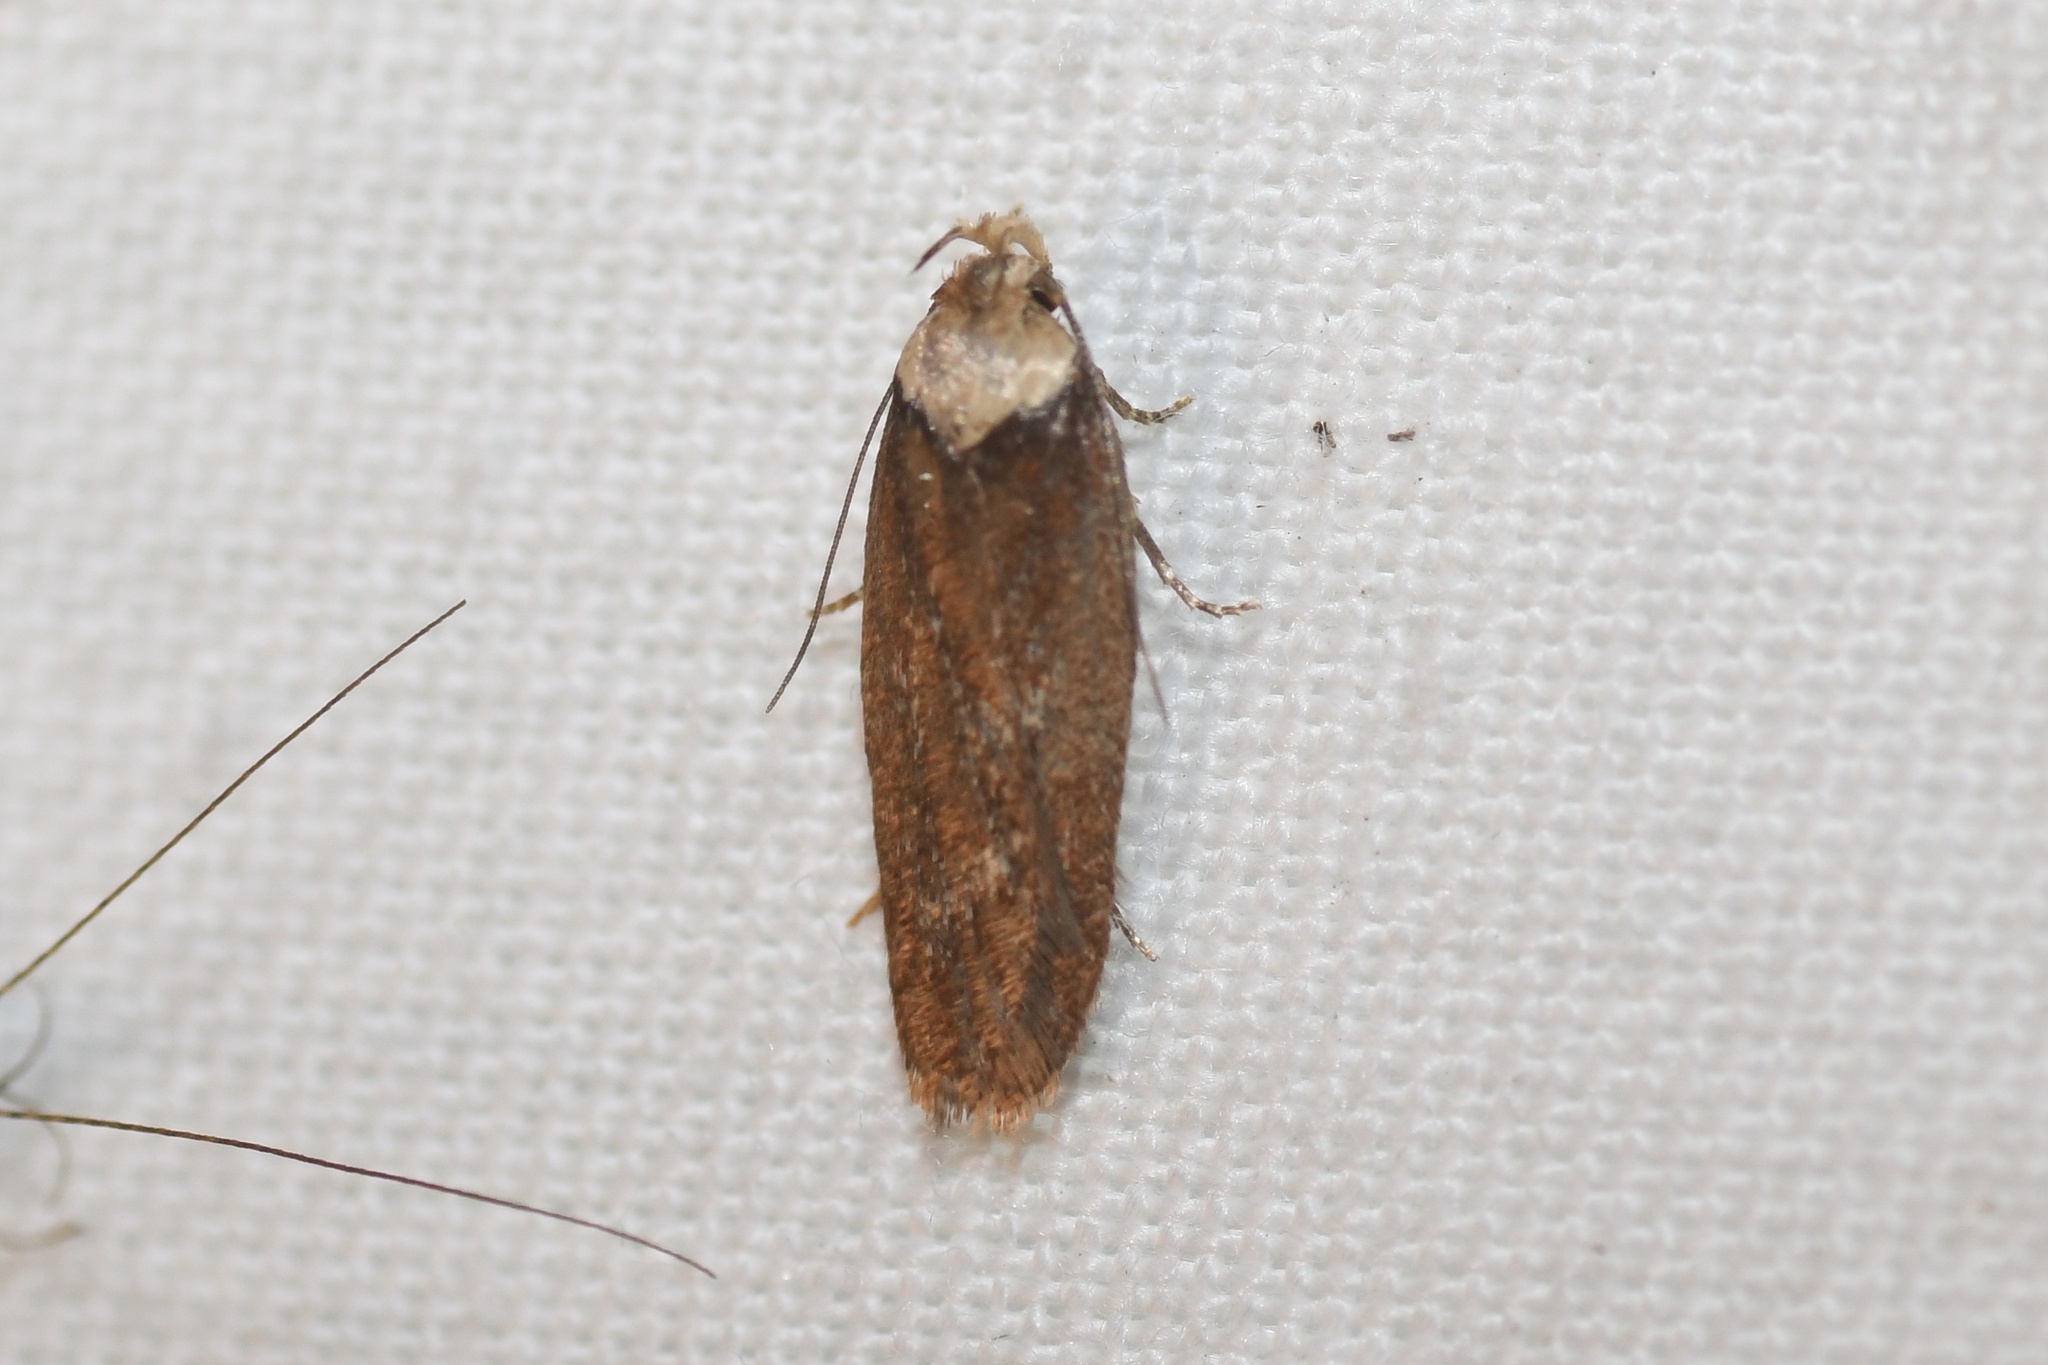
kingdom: Animalia
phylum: Arthropoda
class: Insecta
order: Lepidoptera
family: Depressariidae
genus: Depressaria
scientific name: Depressaria depressana
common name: Lost flat-body
